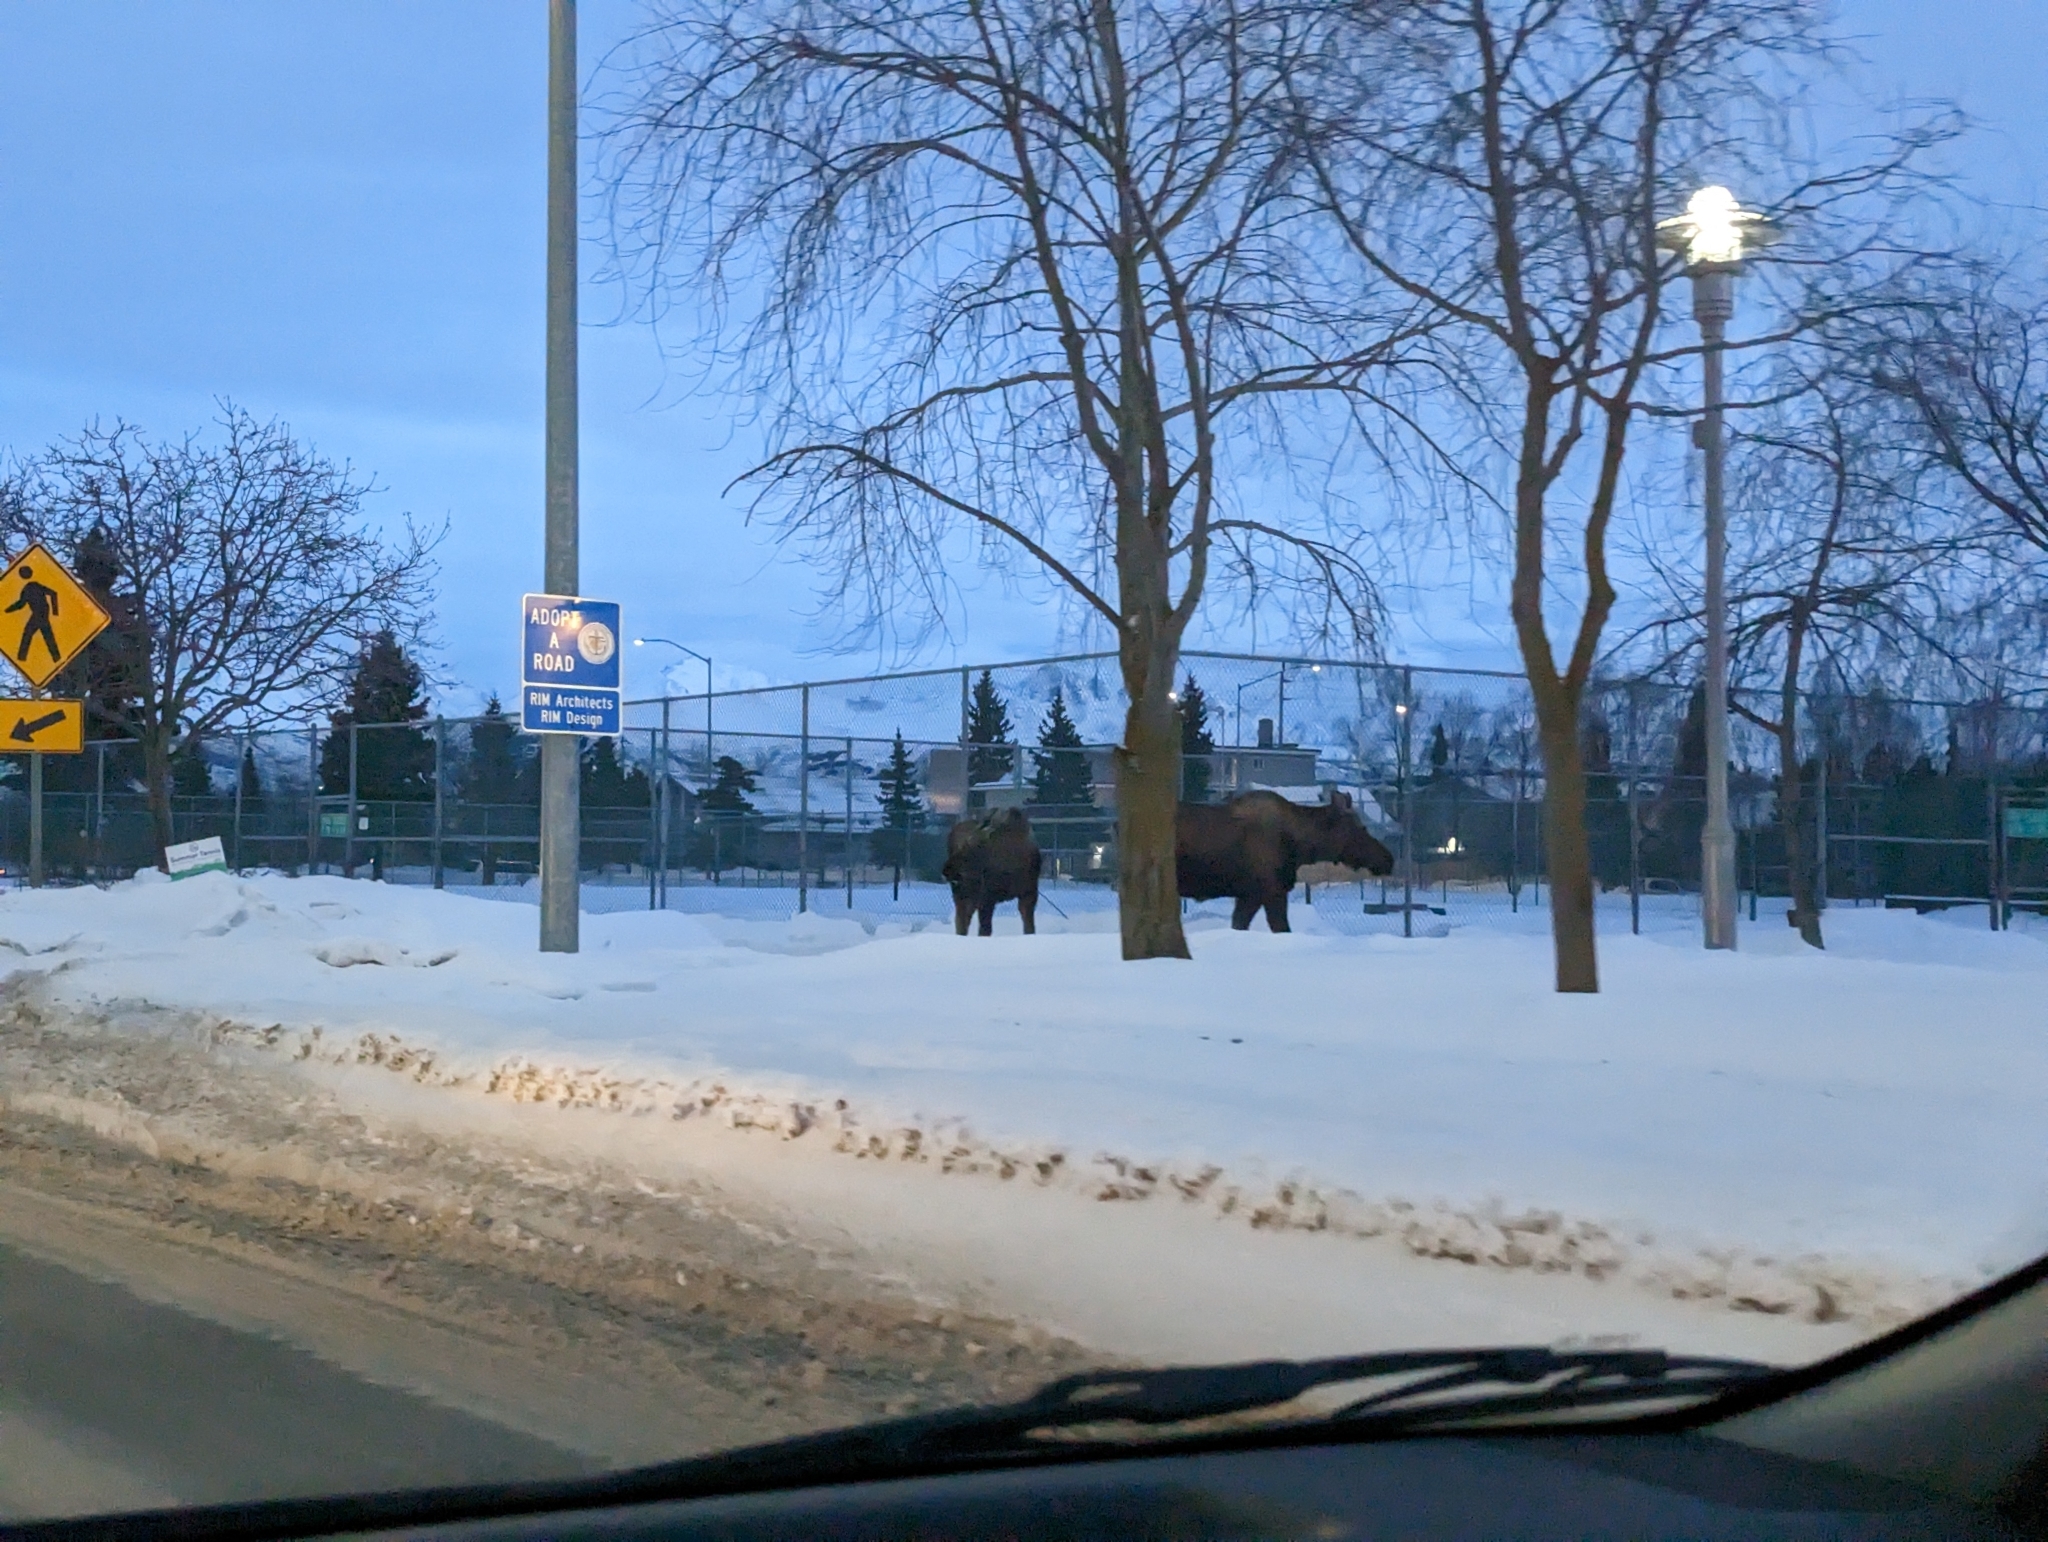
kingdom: Animalia
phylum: Chordata
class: Mammalia
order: Artiodactyla
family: Cervidae
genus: Alces
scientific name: Alces alces
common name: Moose
